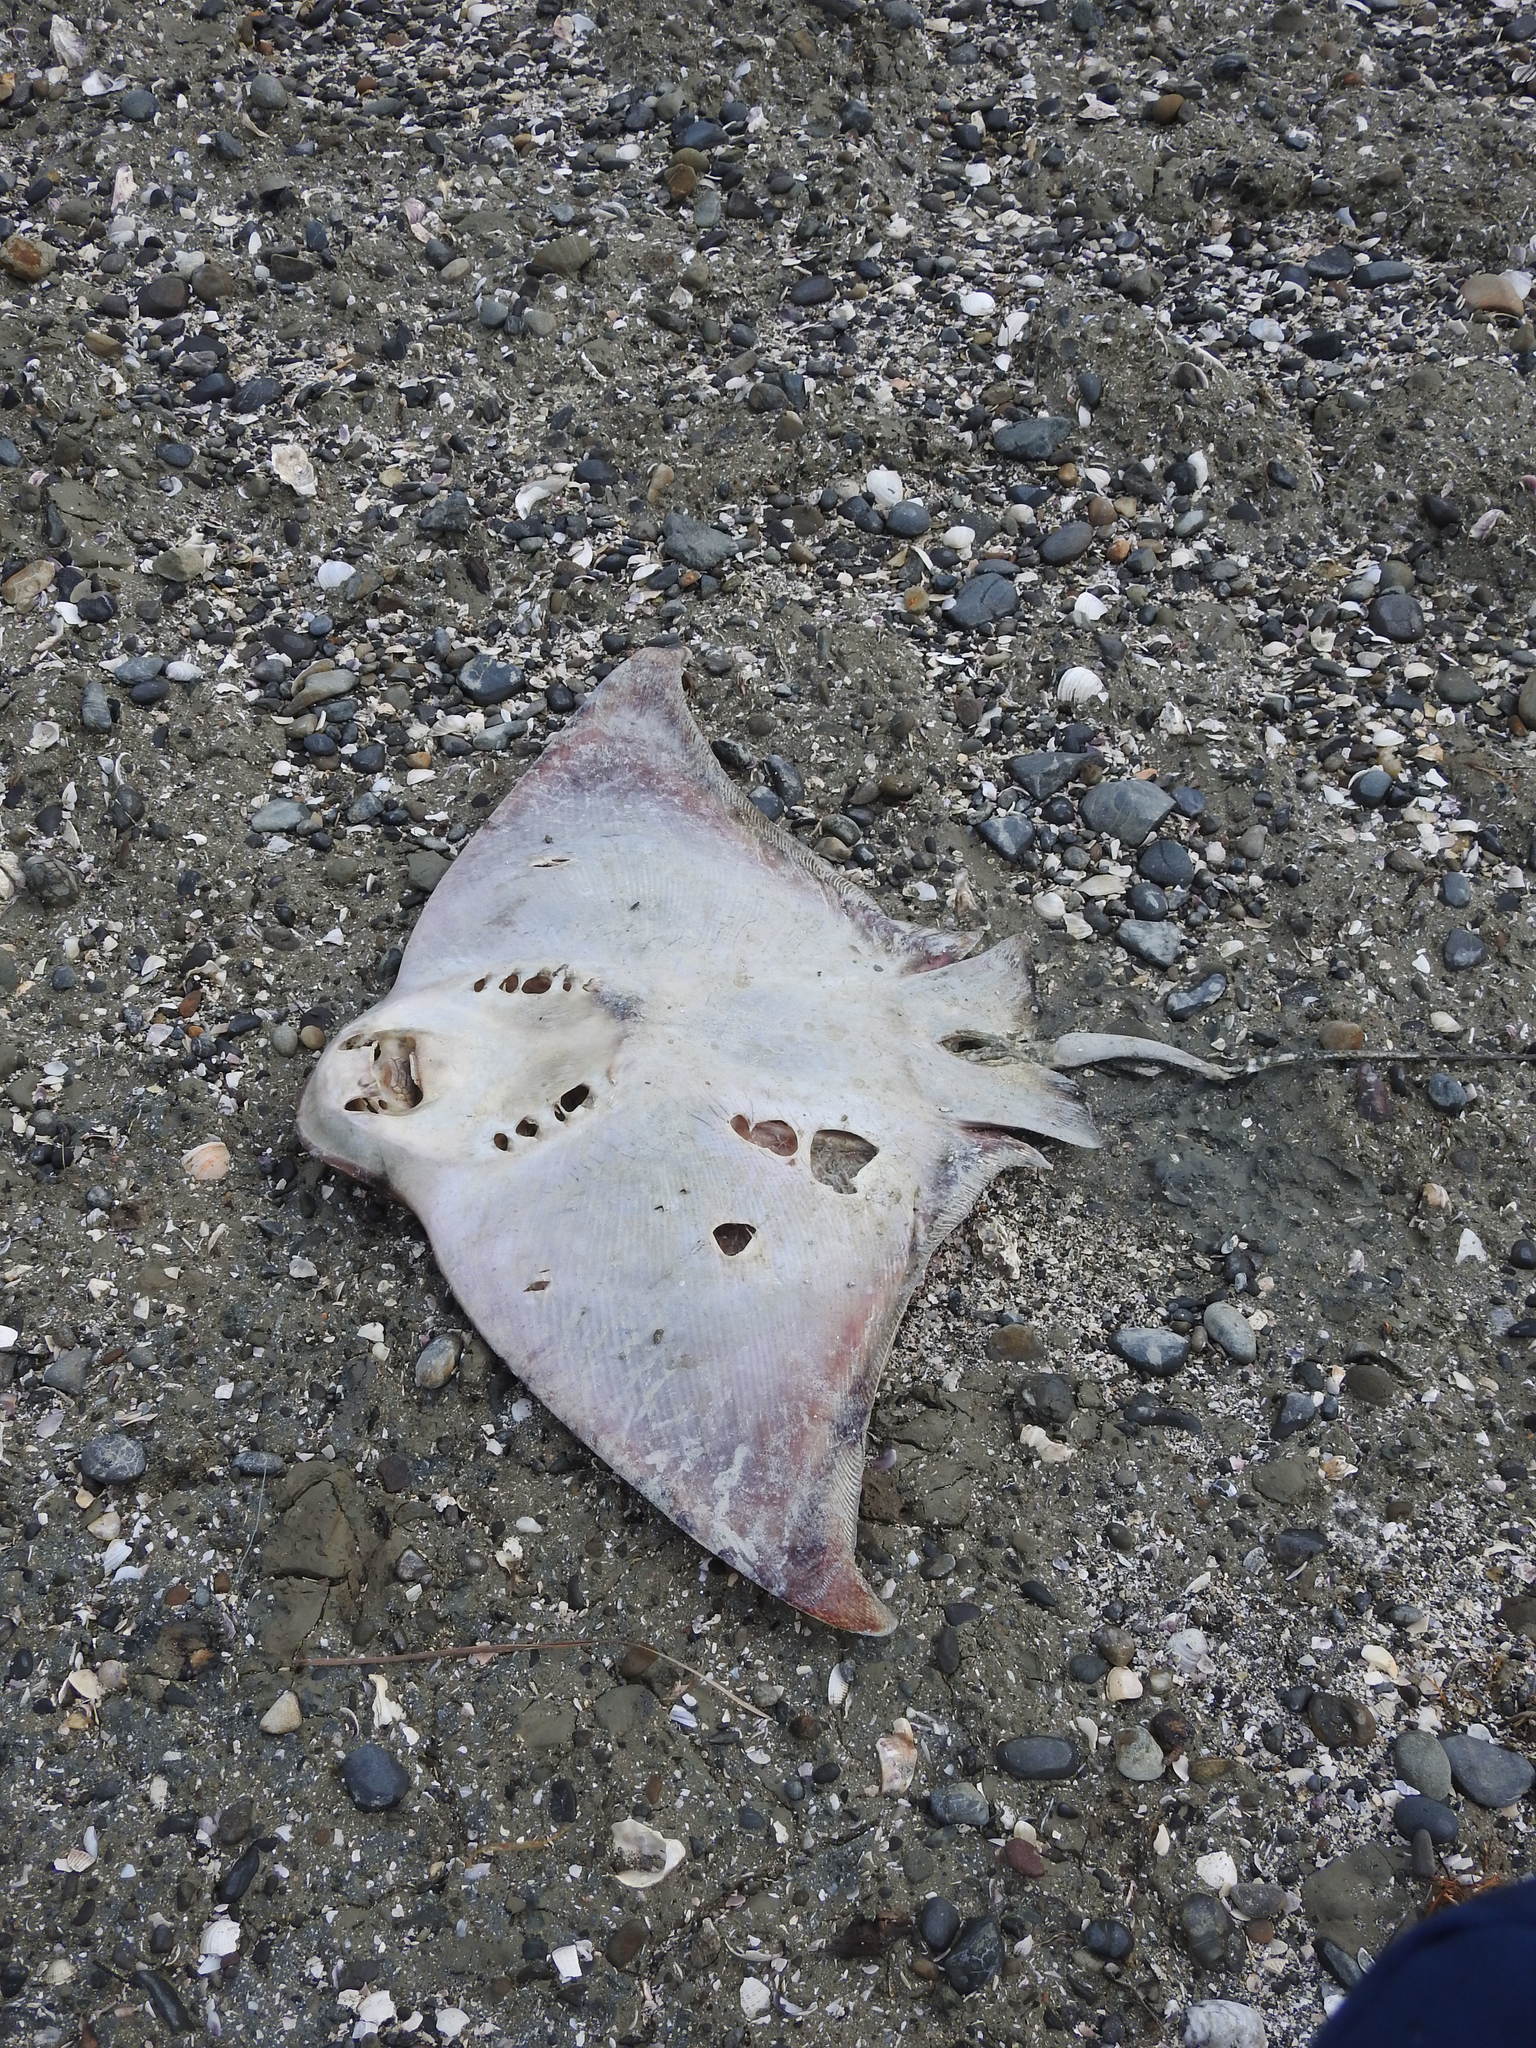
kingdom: Animalia
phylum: Chordata
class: Elasmobranchii
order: Myliobatiformes
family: Myliobatidae
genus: Myliobatis
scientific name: Myliobatis tenuicaudatus
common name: Eagle ray
